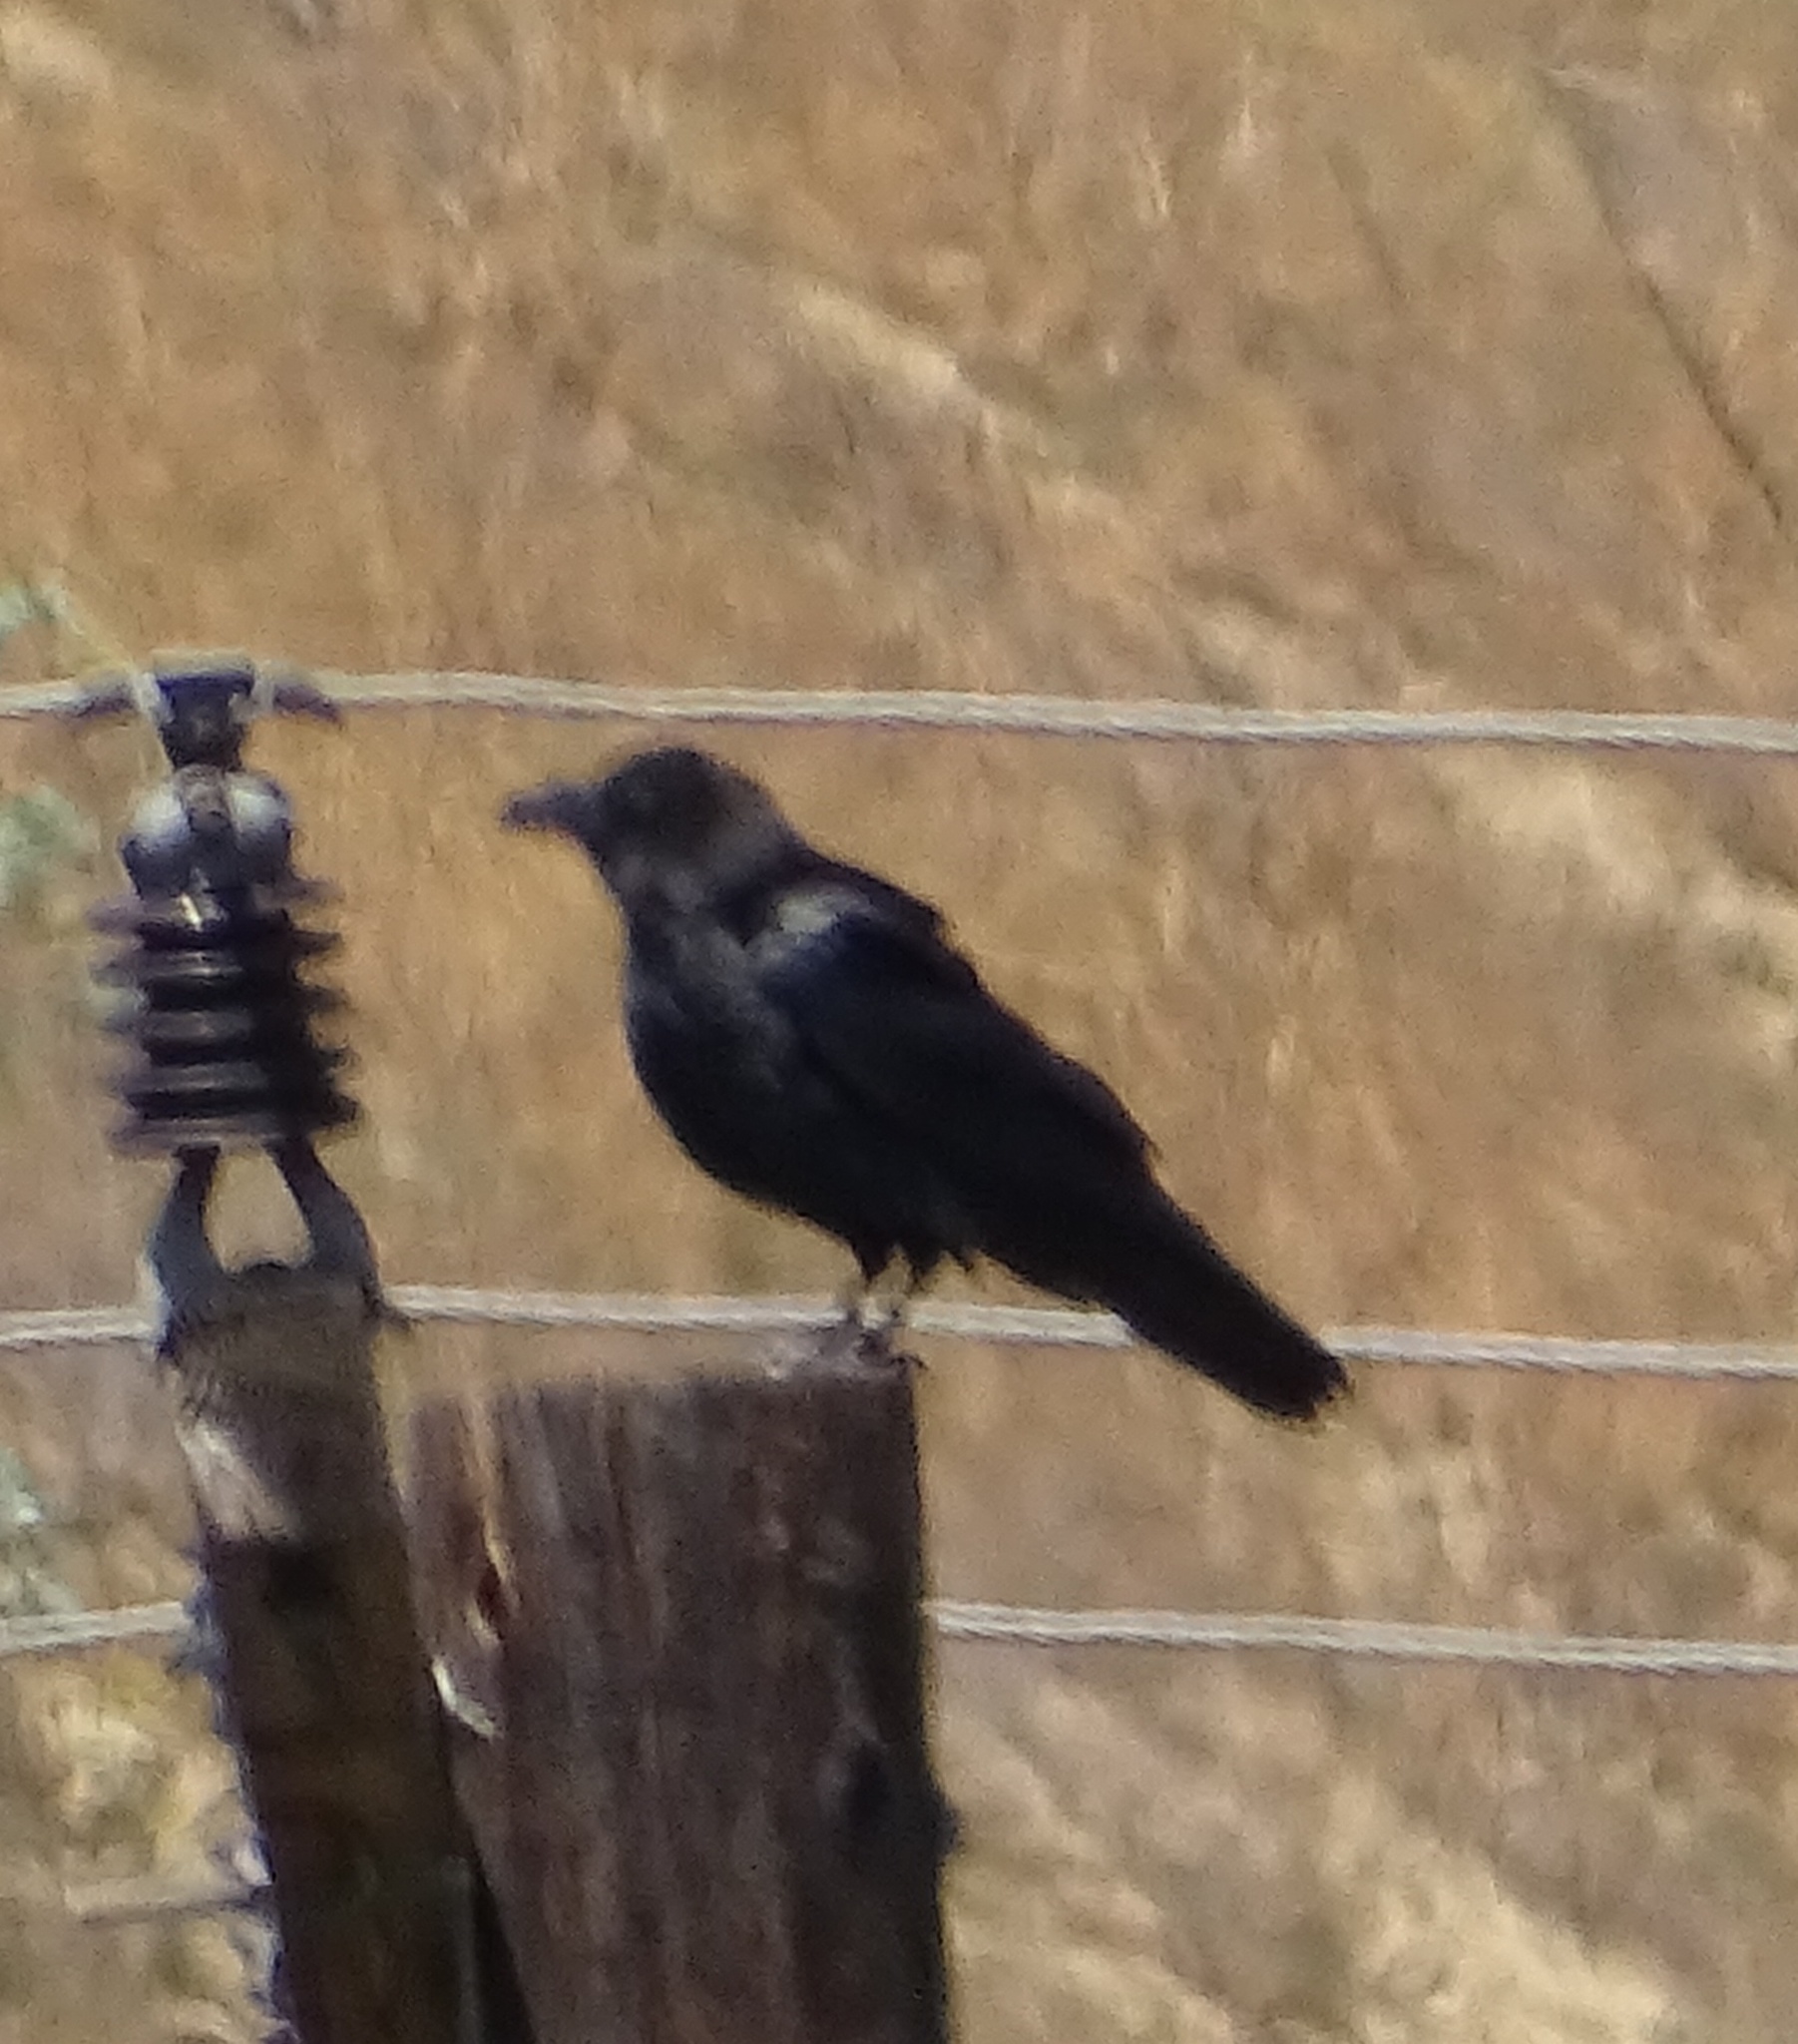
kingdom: Animalia
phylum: Chordata
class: Aves
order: Passeriformes
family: Corvidae
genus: Corvus
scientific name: Corvus brachyrhynchos
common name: American crow
